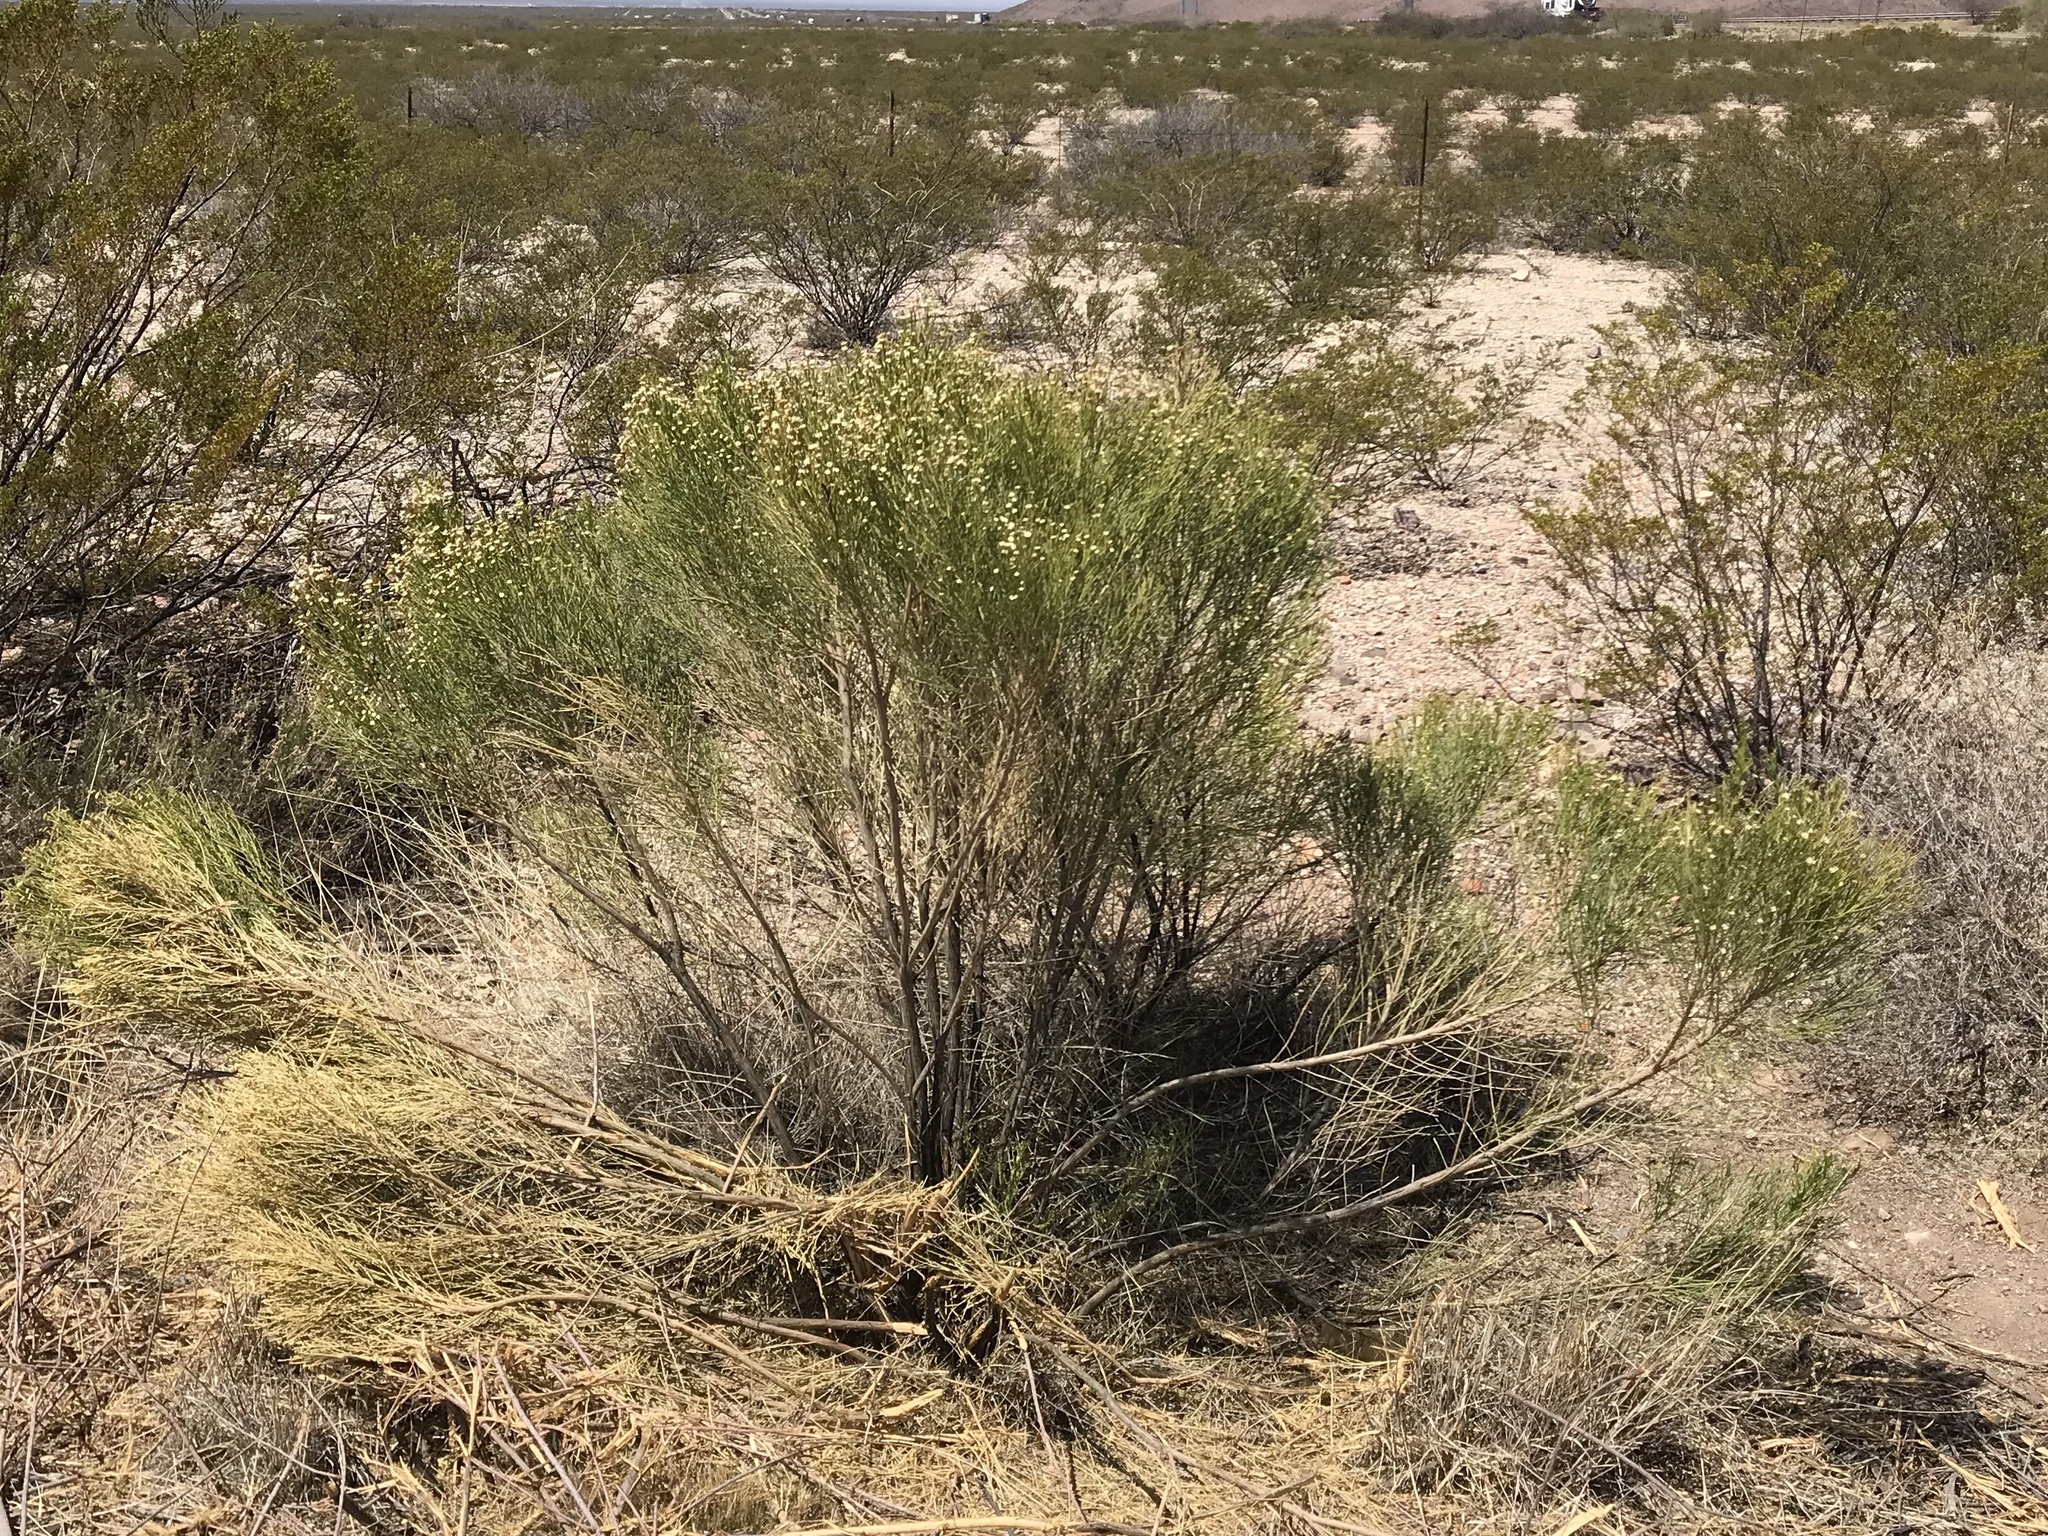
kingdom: Plantae
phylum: Tracheophyta
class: Magnoliopsida
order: Asterales
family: Asteraceae
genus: Baccharis
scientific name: Baccharis sarothroides
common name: Desert-broom
